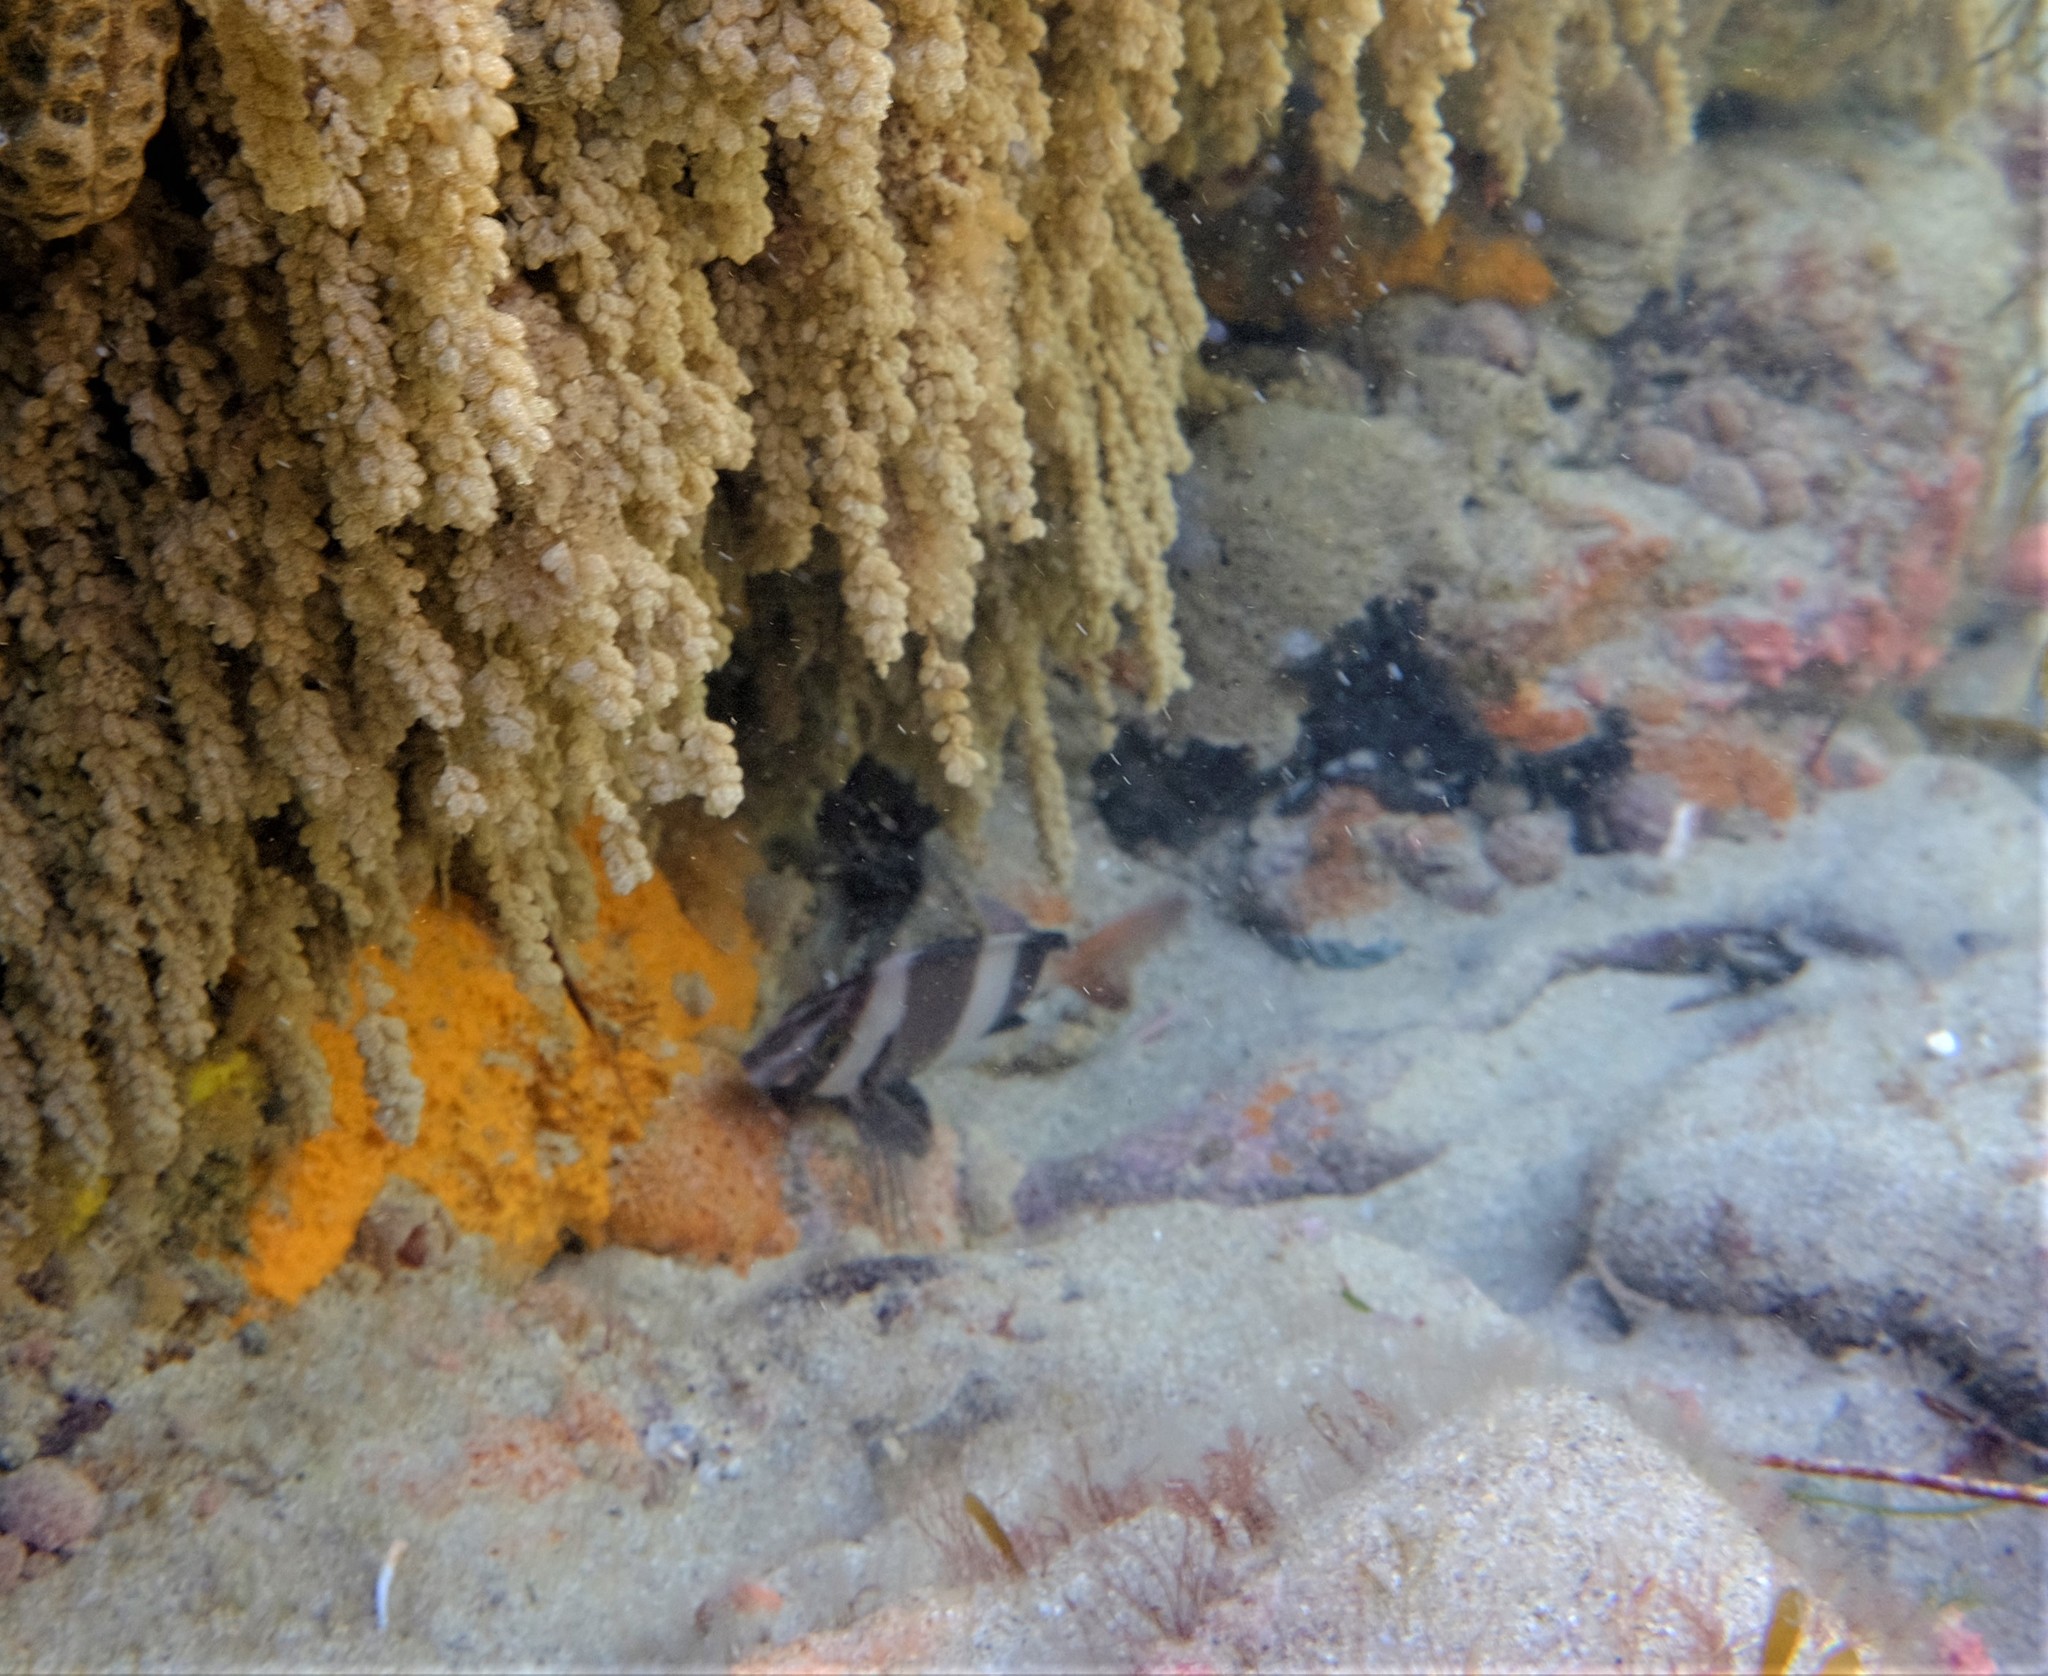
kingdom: Animalia
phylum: Chordata
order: Perciformes
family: Latridae
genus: Pseudogoniistius
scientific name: Pseudogoniistius nigripes
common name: Black-striped morwong
